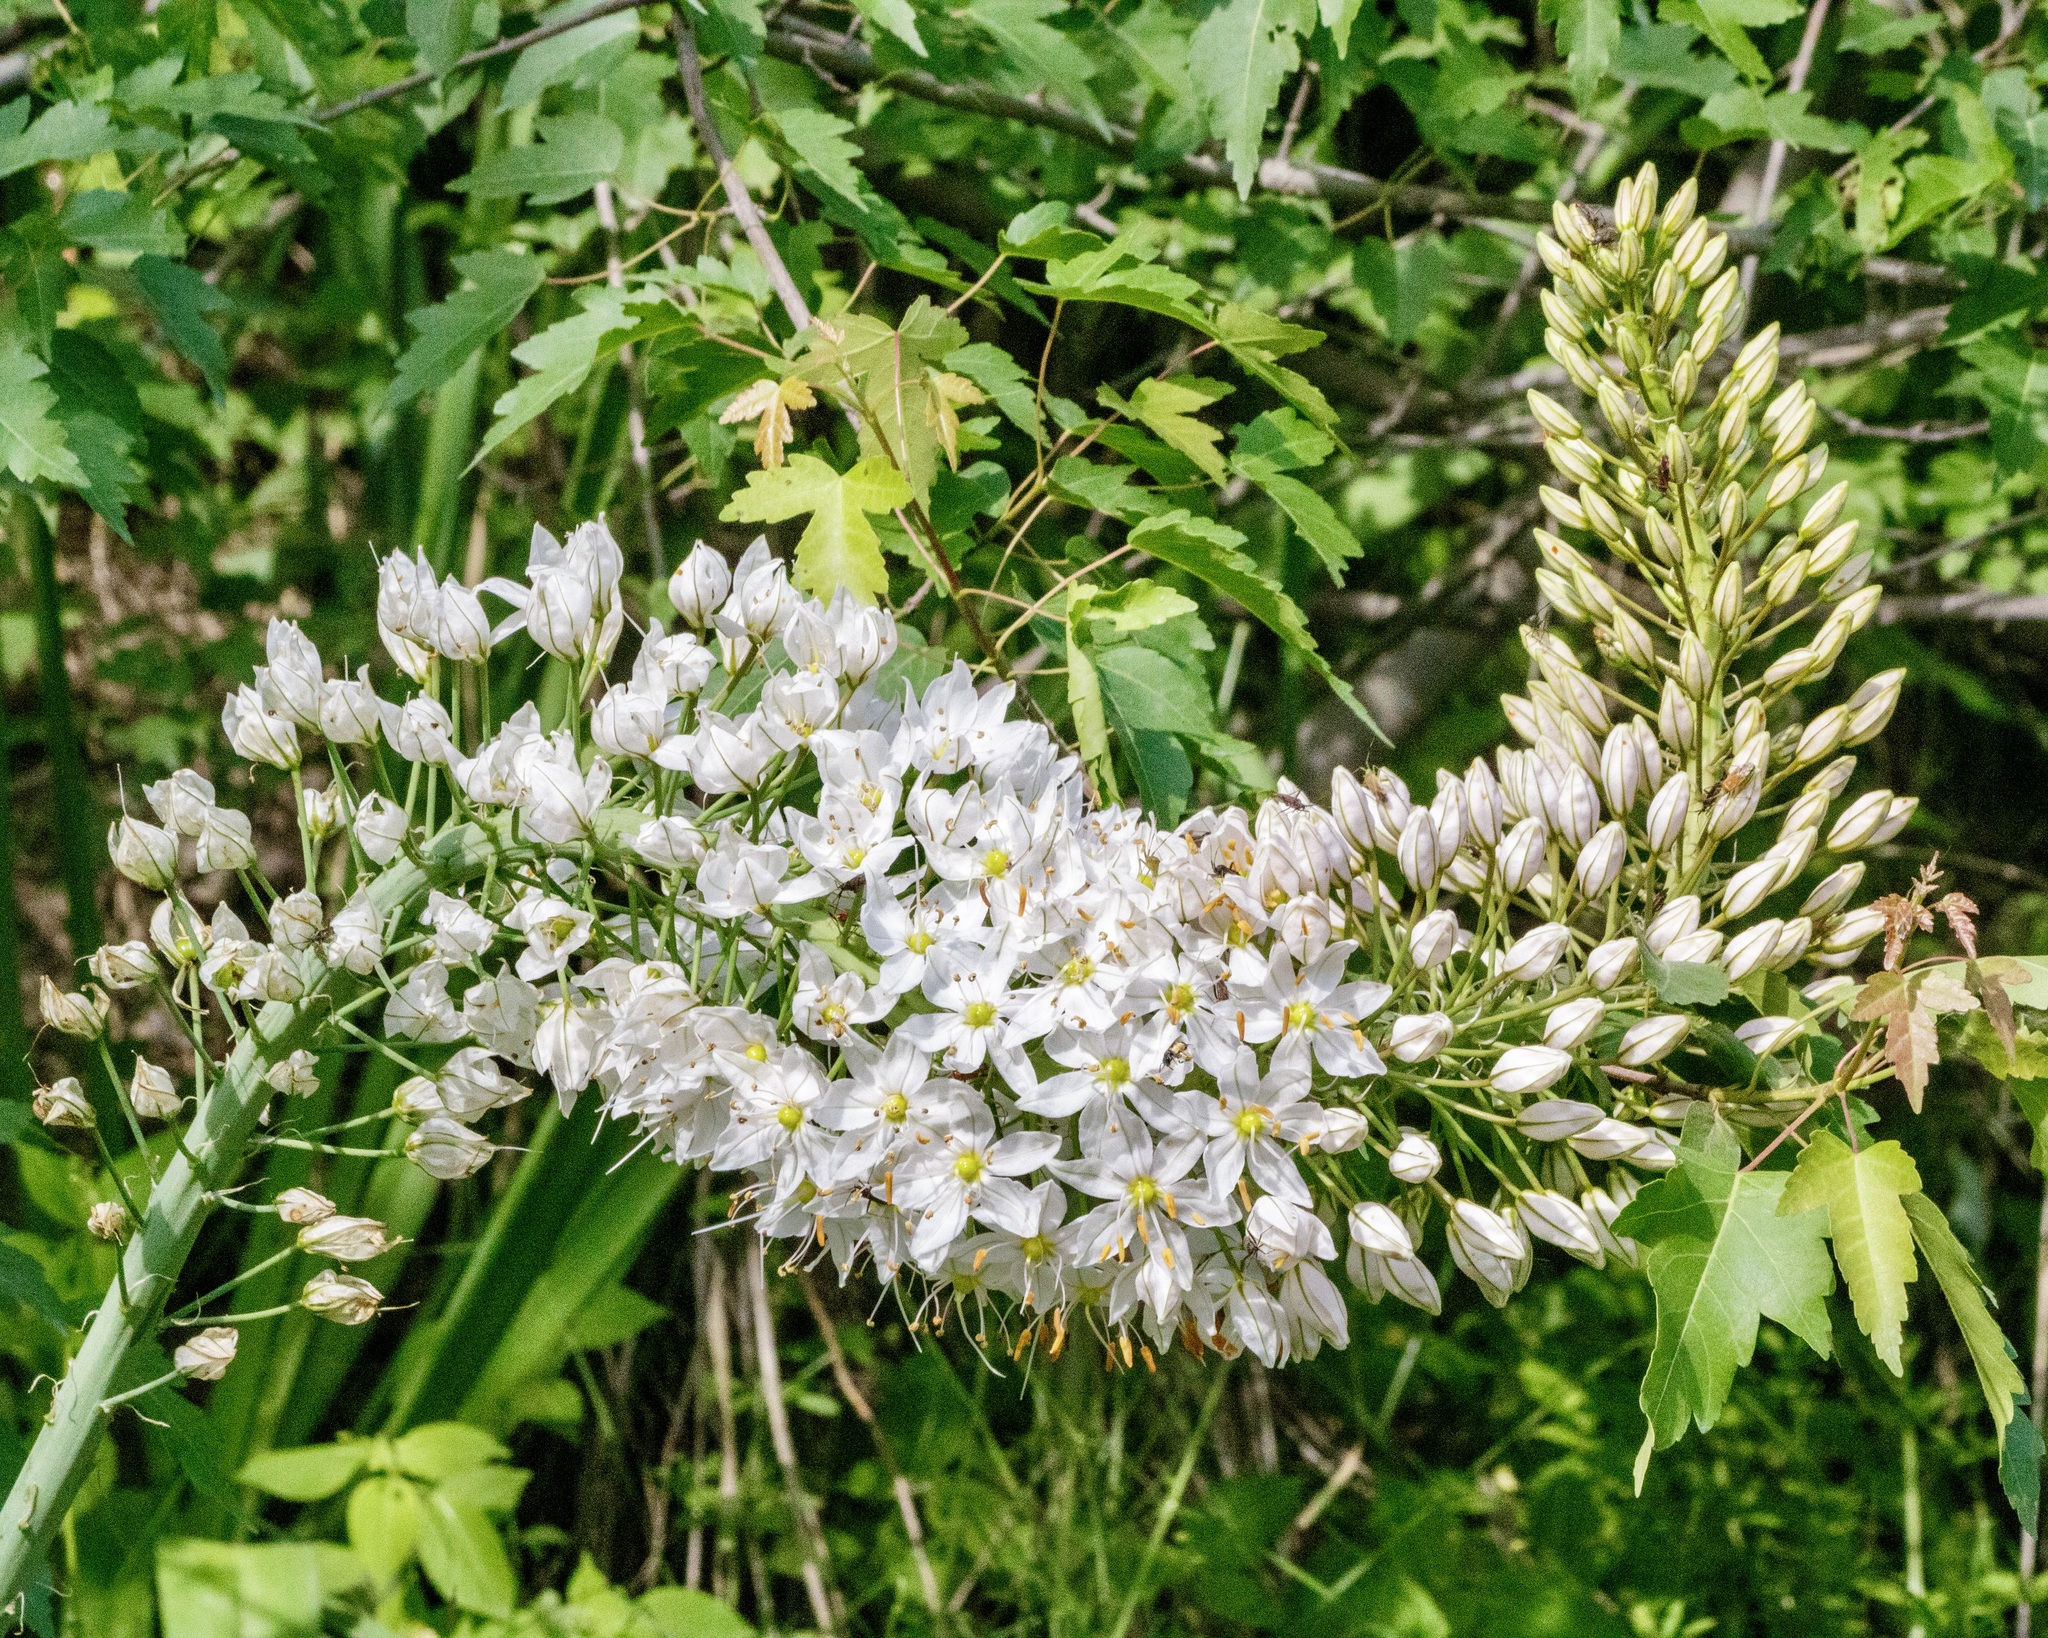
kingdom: Plantae
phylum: Tracheophyta
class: Liliopsida
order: Asparagales
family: Asphodelaceae
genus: Eremurus
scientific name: Eremurus robustus
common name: Foxtail lily
